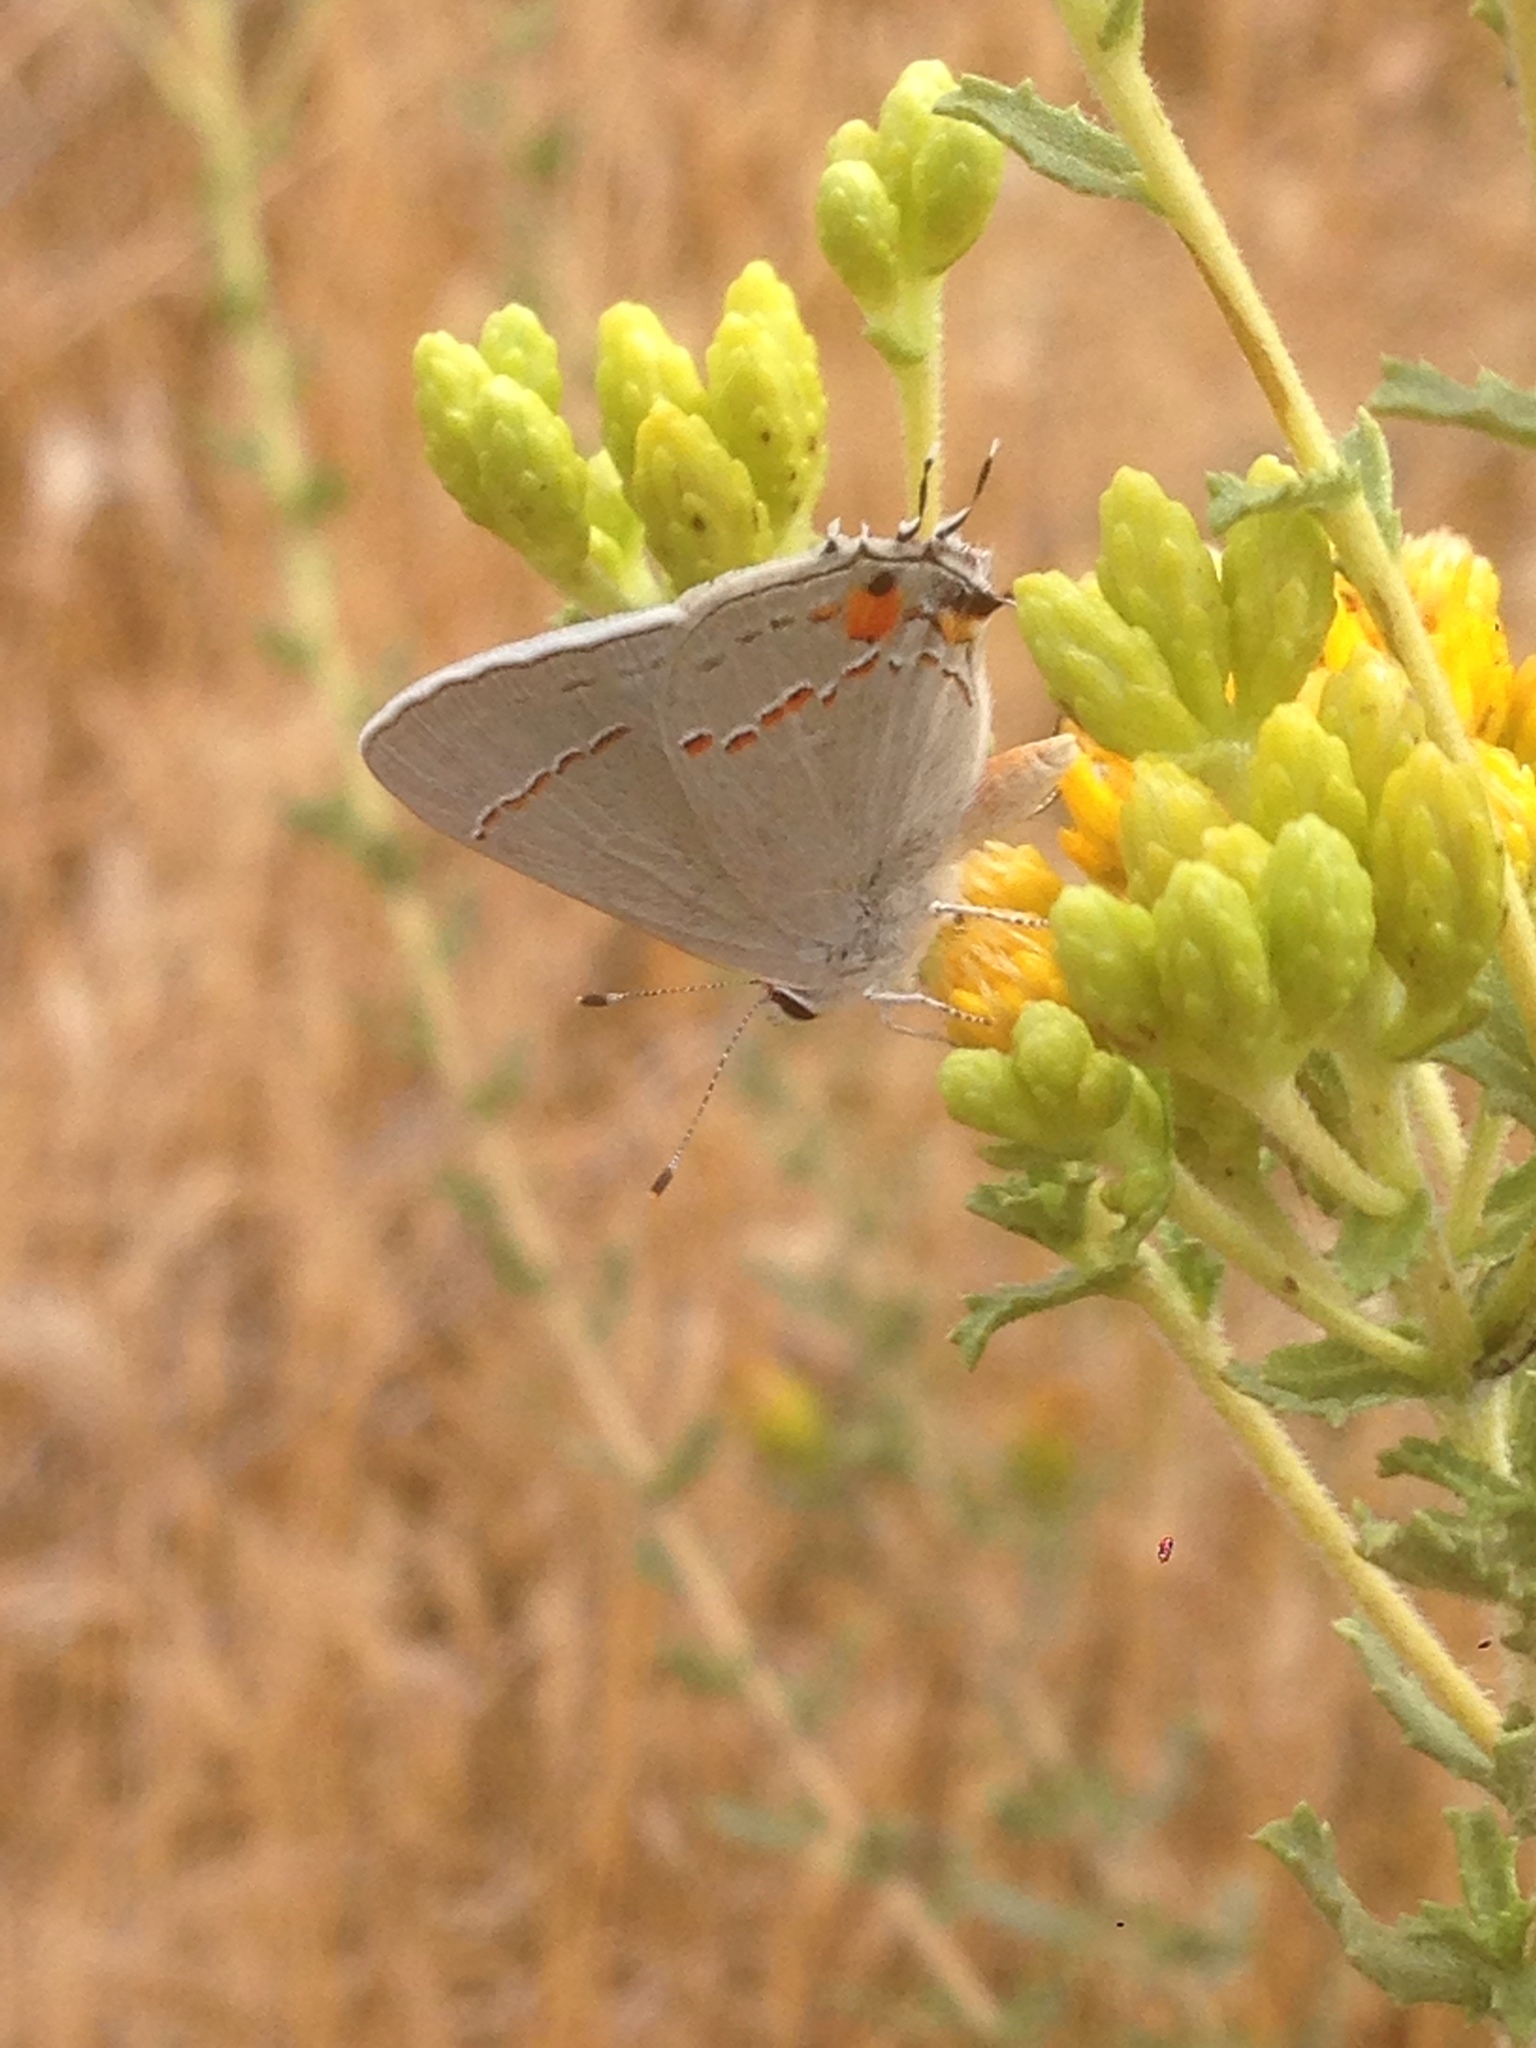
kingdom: Animalia
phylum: Arthropoda
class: Insecta
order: Lepidoptera
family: Lycaenidae
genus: Strymon
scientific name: Strymon melinus
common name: Gray hairstreak
